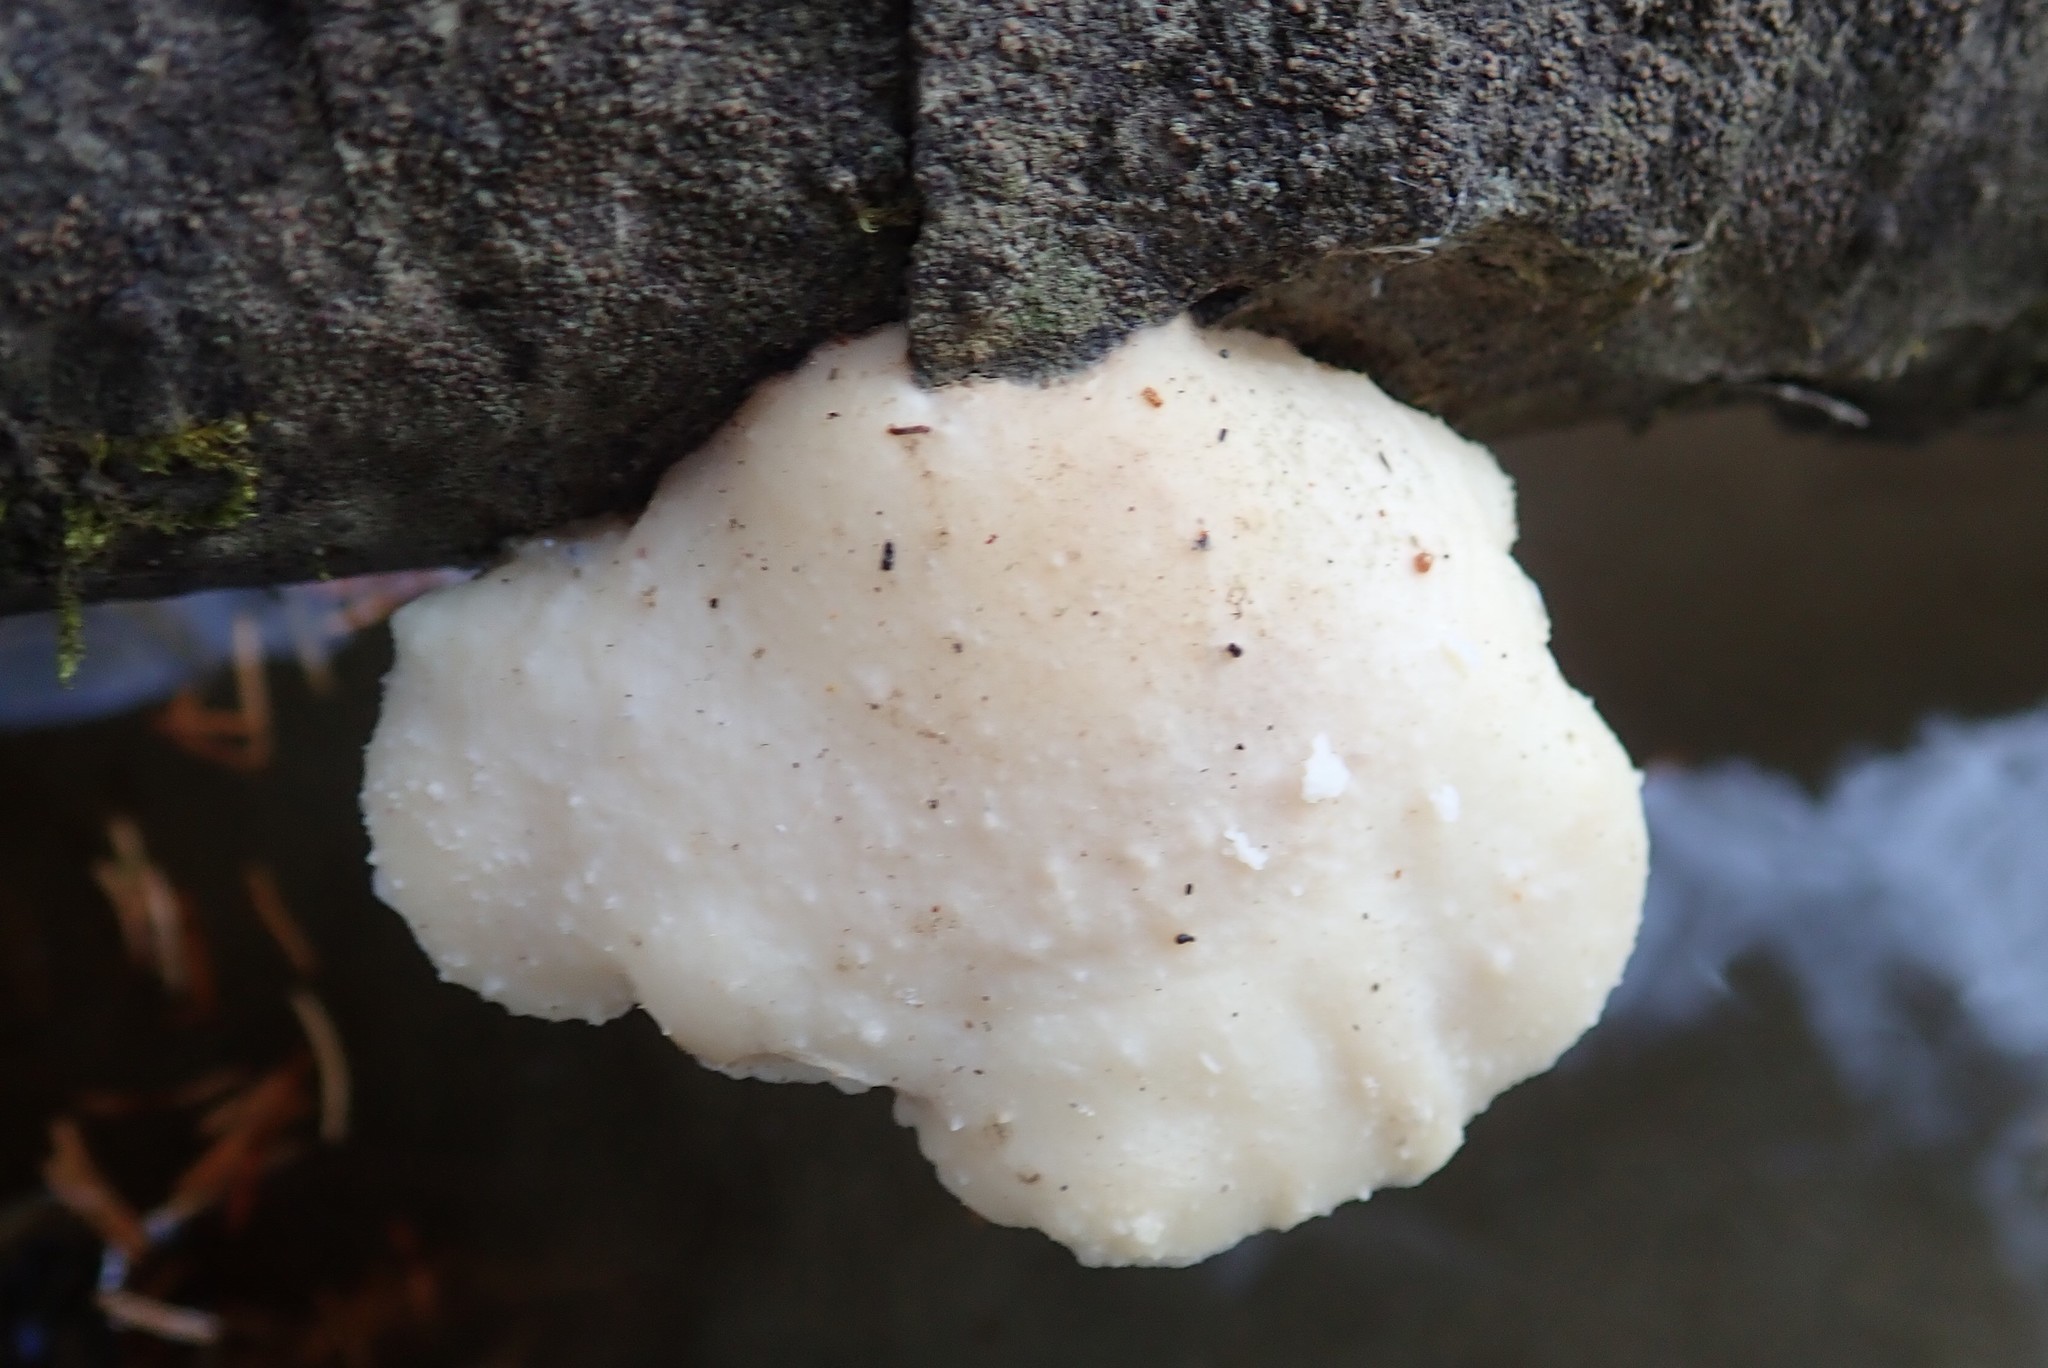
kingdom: Fungi
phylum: Basidiomycota
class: Agaricomycetes
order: Polyporales
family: Incrustoporiaceae
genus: Tyromyces
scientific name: Tyromyces chioneus
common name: White cheese polypore
